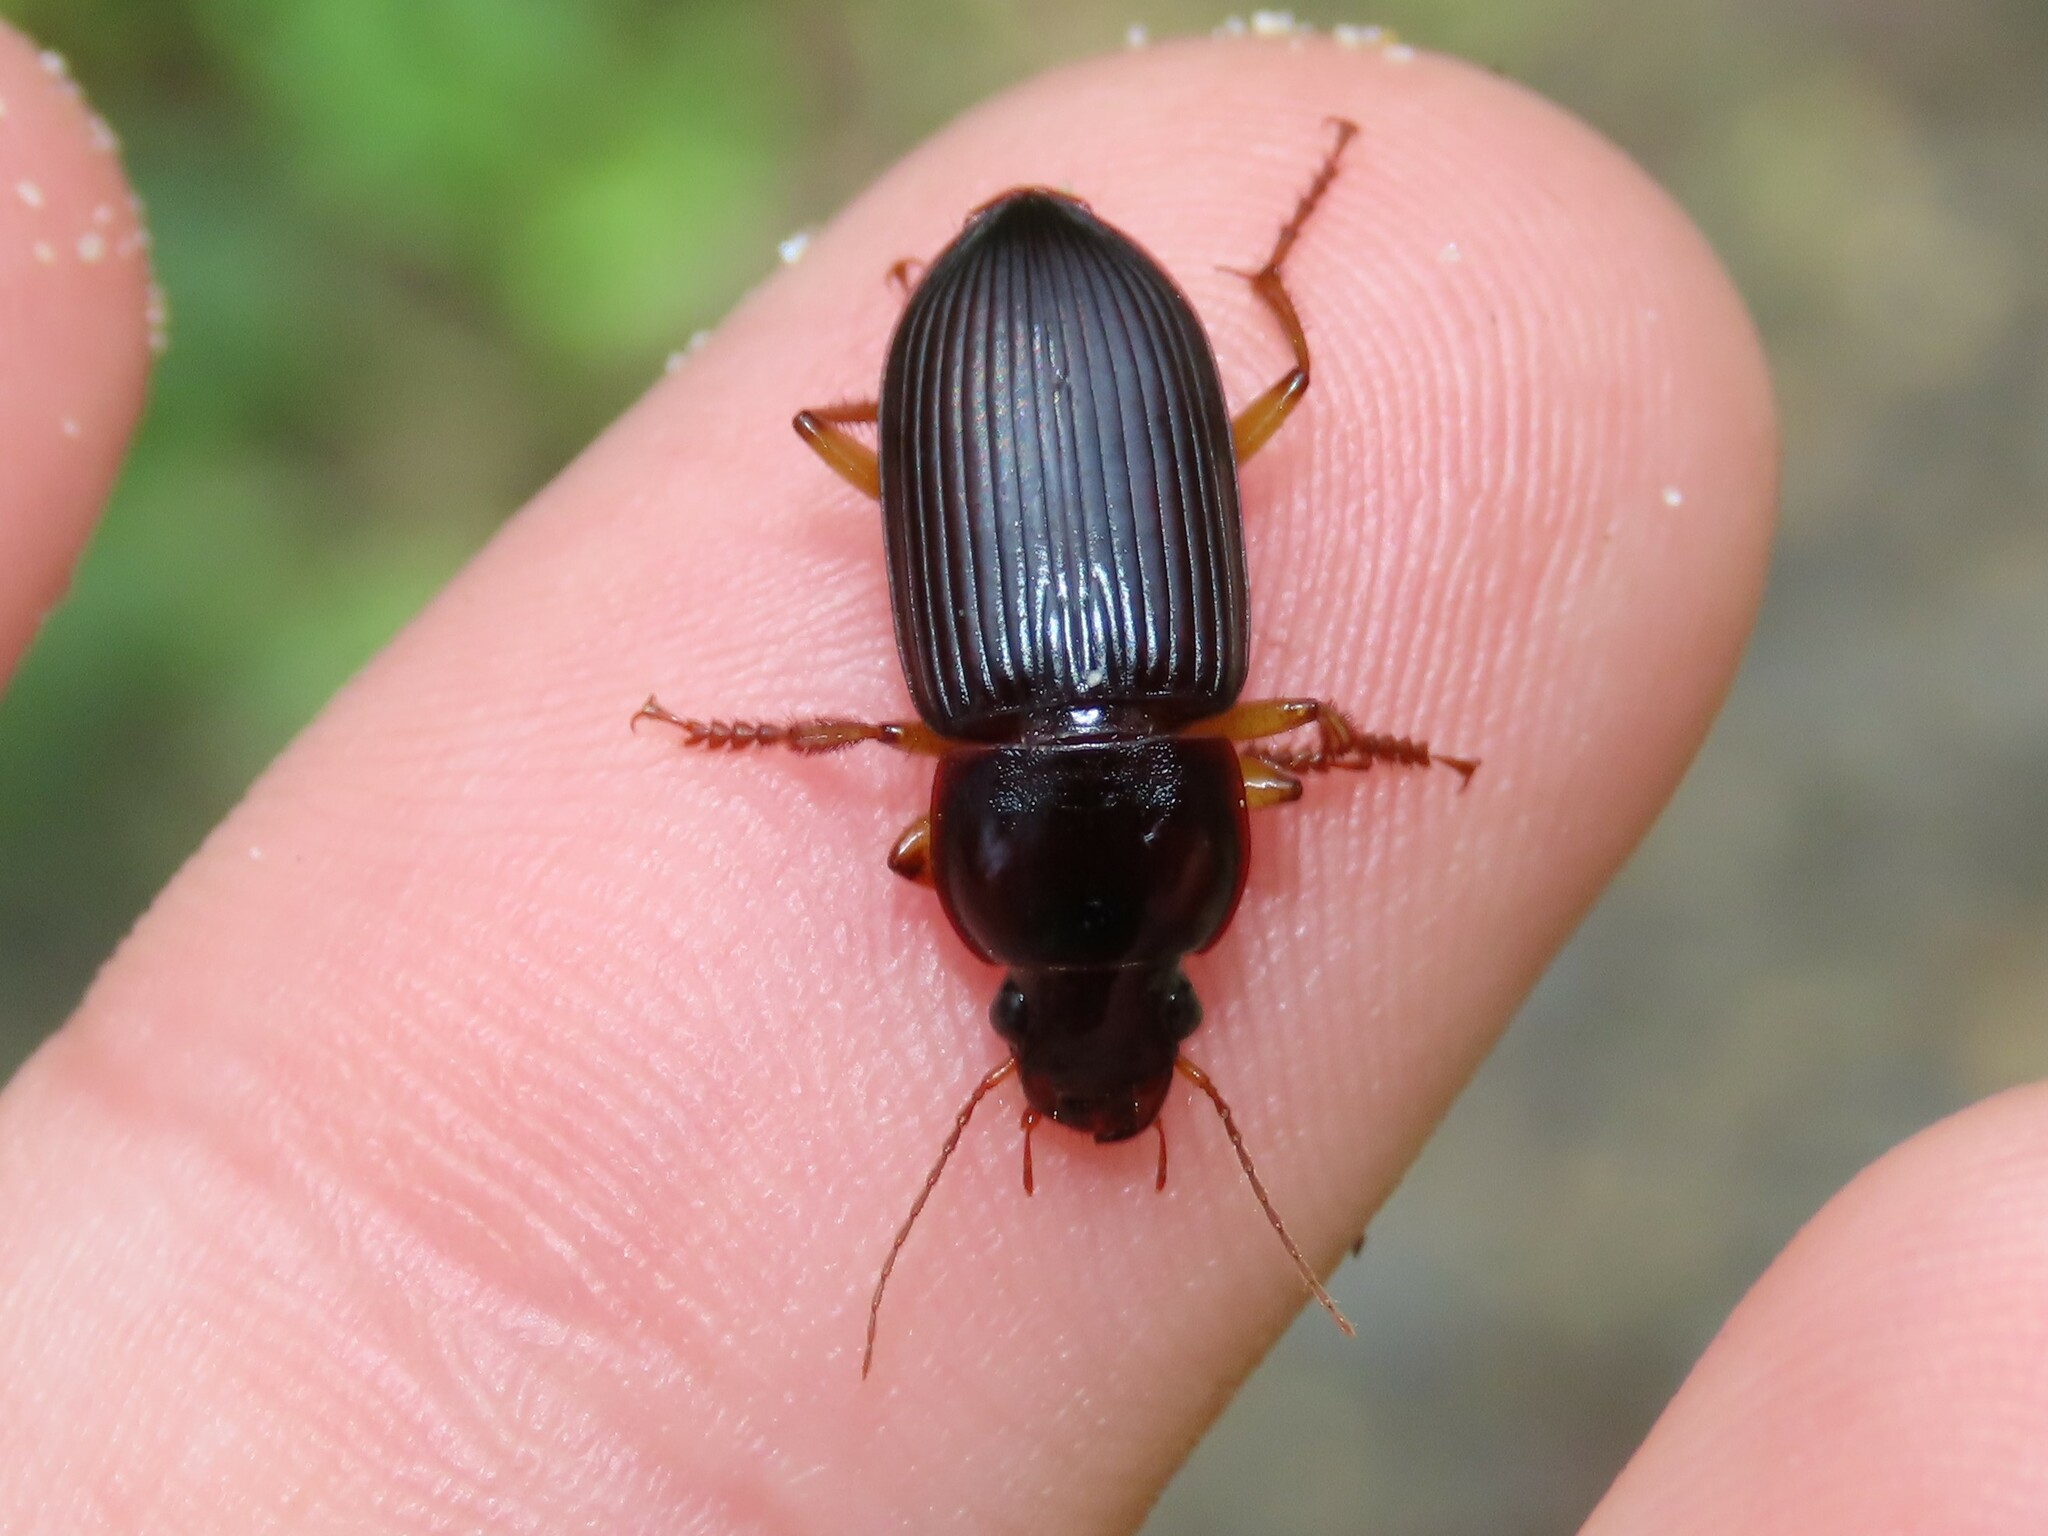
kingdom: Animalia
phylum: Arthropoda
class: Insecta
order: Coleoptera
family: Carabidae
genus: Harpalus
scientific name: Harpalus pensylvanicus
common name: Pennsylvania dingy ground beetle
